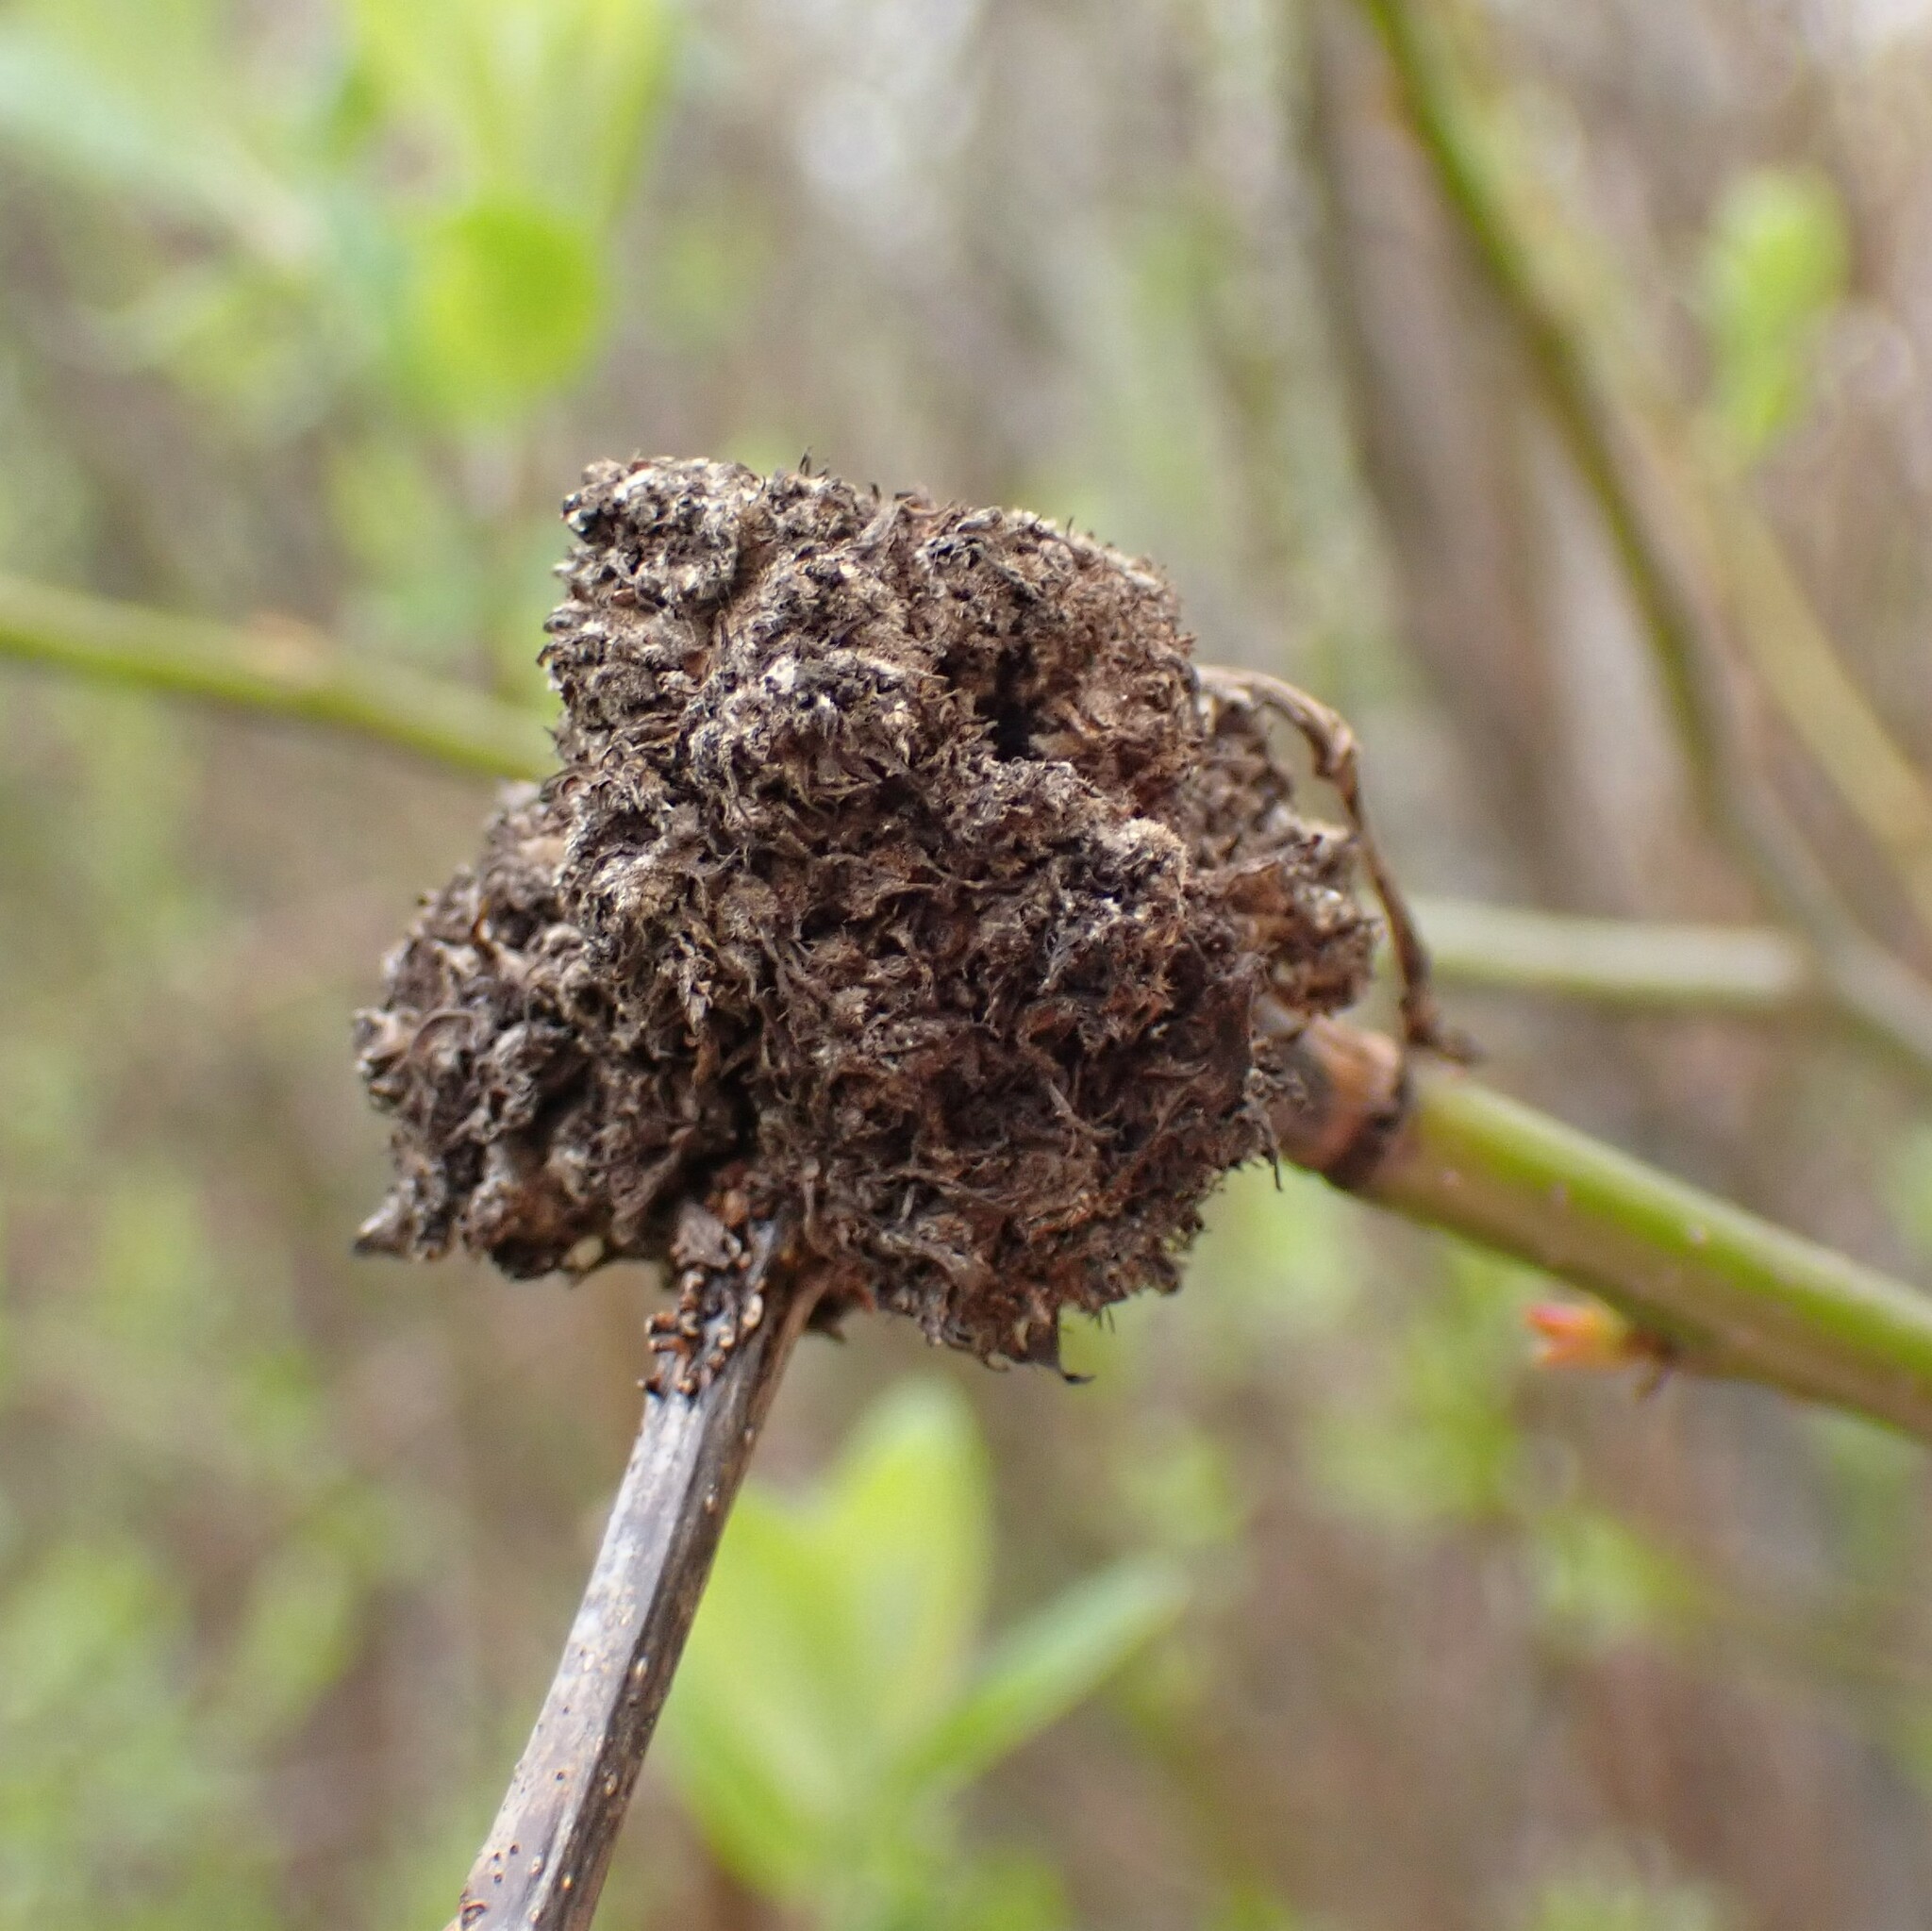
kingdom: Animalia
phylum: Arthropoda
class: Arachnida
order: Trombidiformes
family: Eriophyidae
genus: Aculops
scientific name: Aculops
